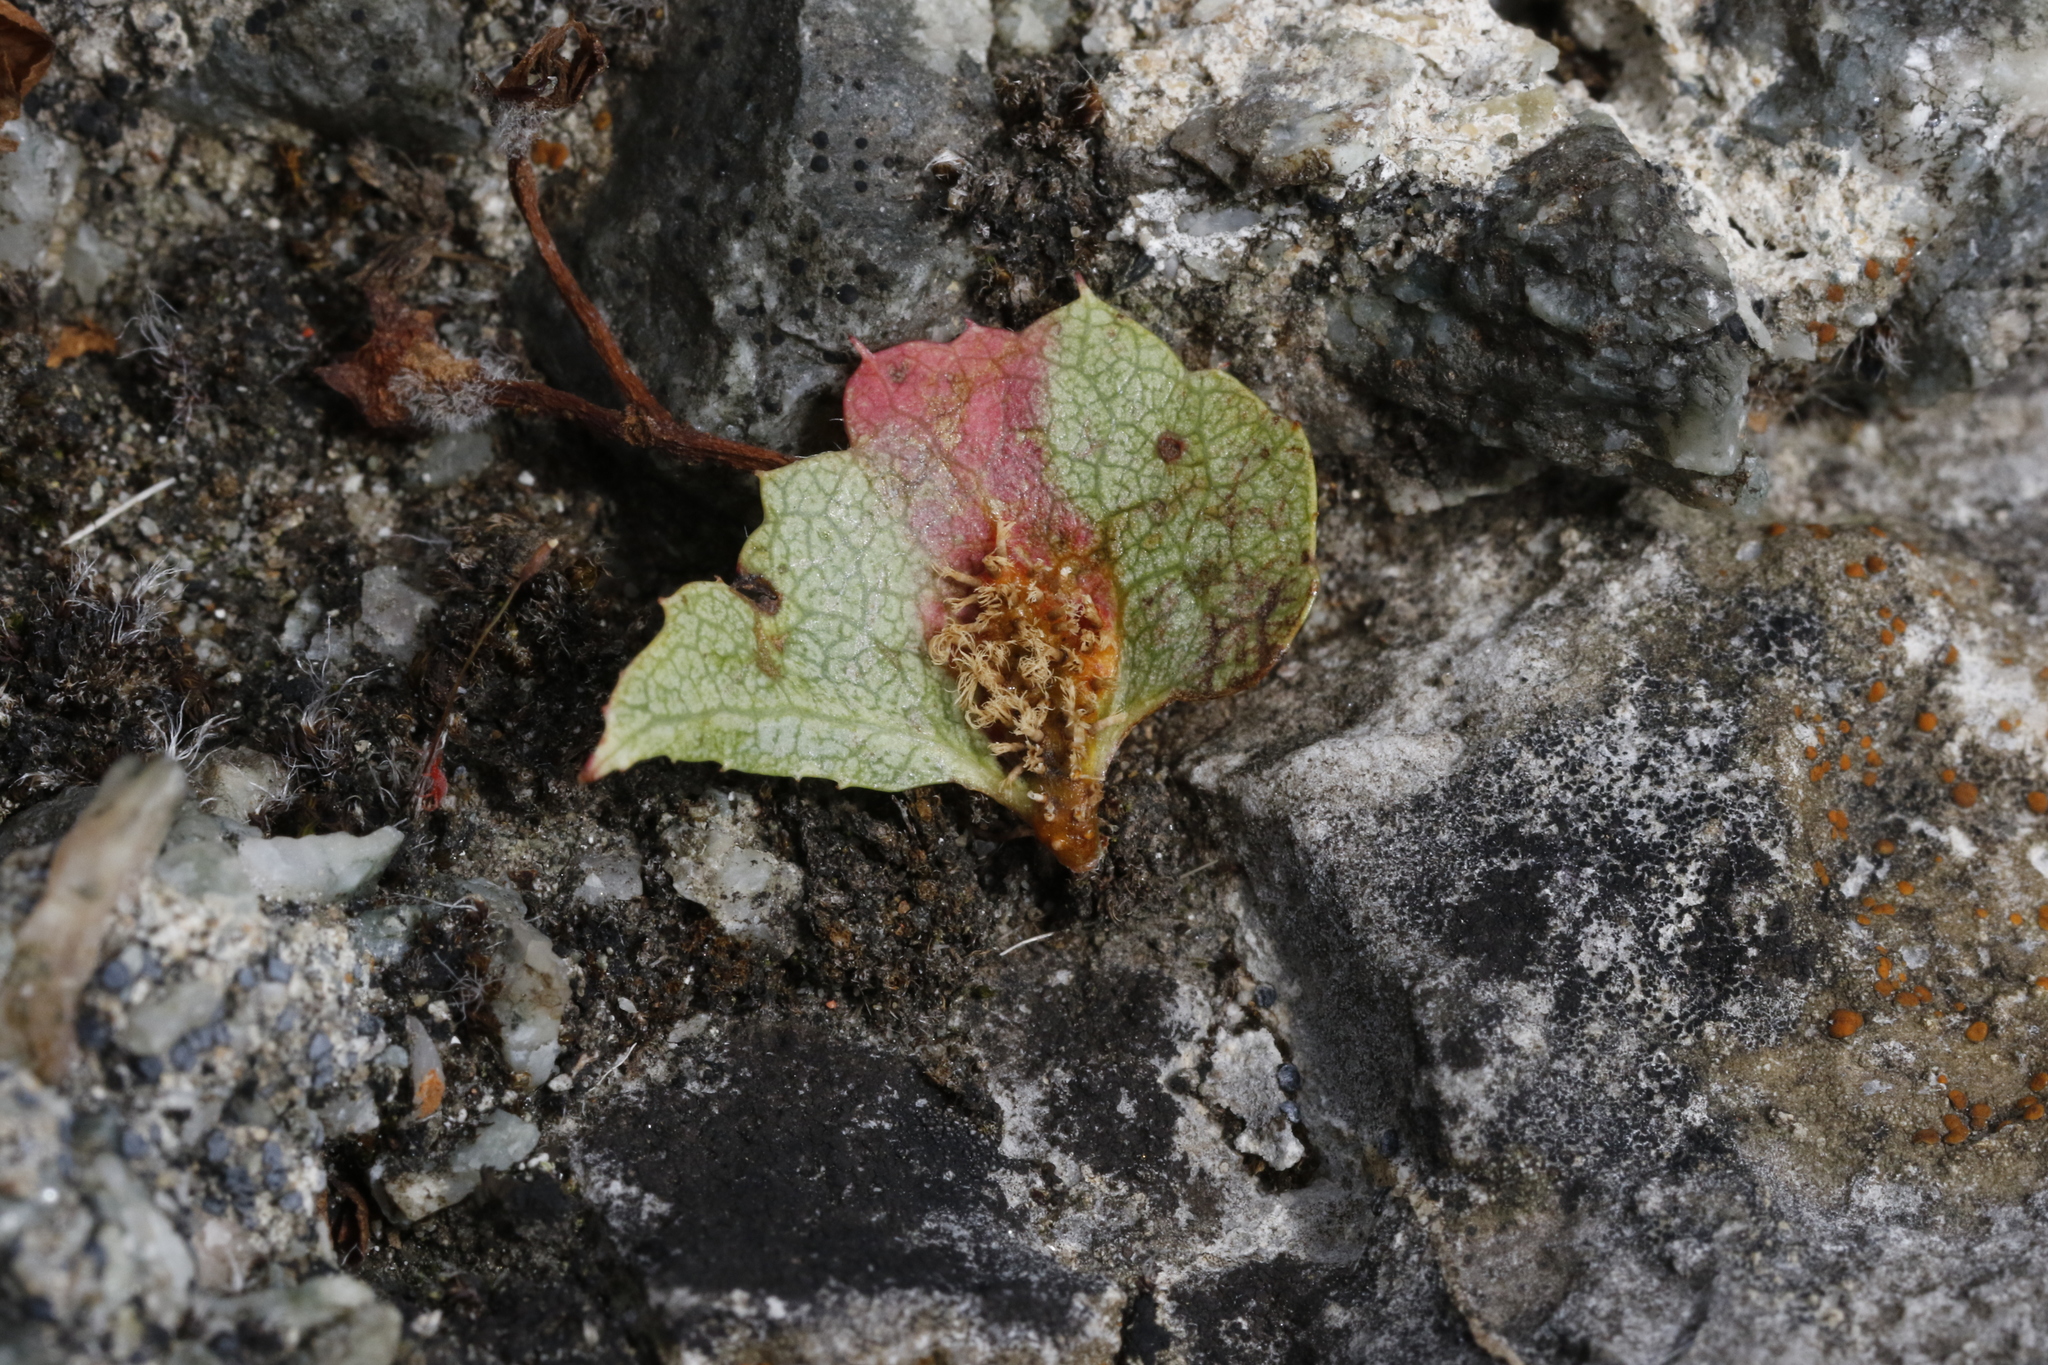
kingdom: Fungi
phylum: Basidiomycota
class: Pucciniomycetes
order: Pucciniales
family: Gymnosporangiaceae
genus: Gymnosporangium
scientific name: Gymnosporangium sabinae
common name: Pear trellis rust fungus
